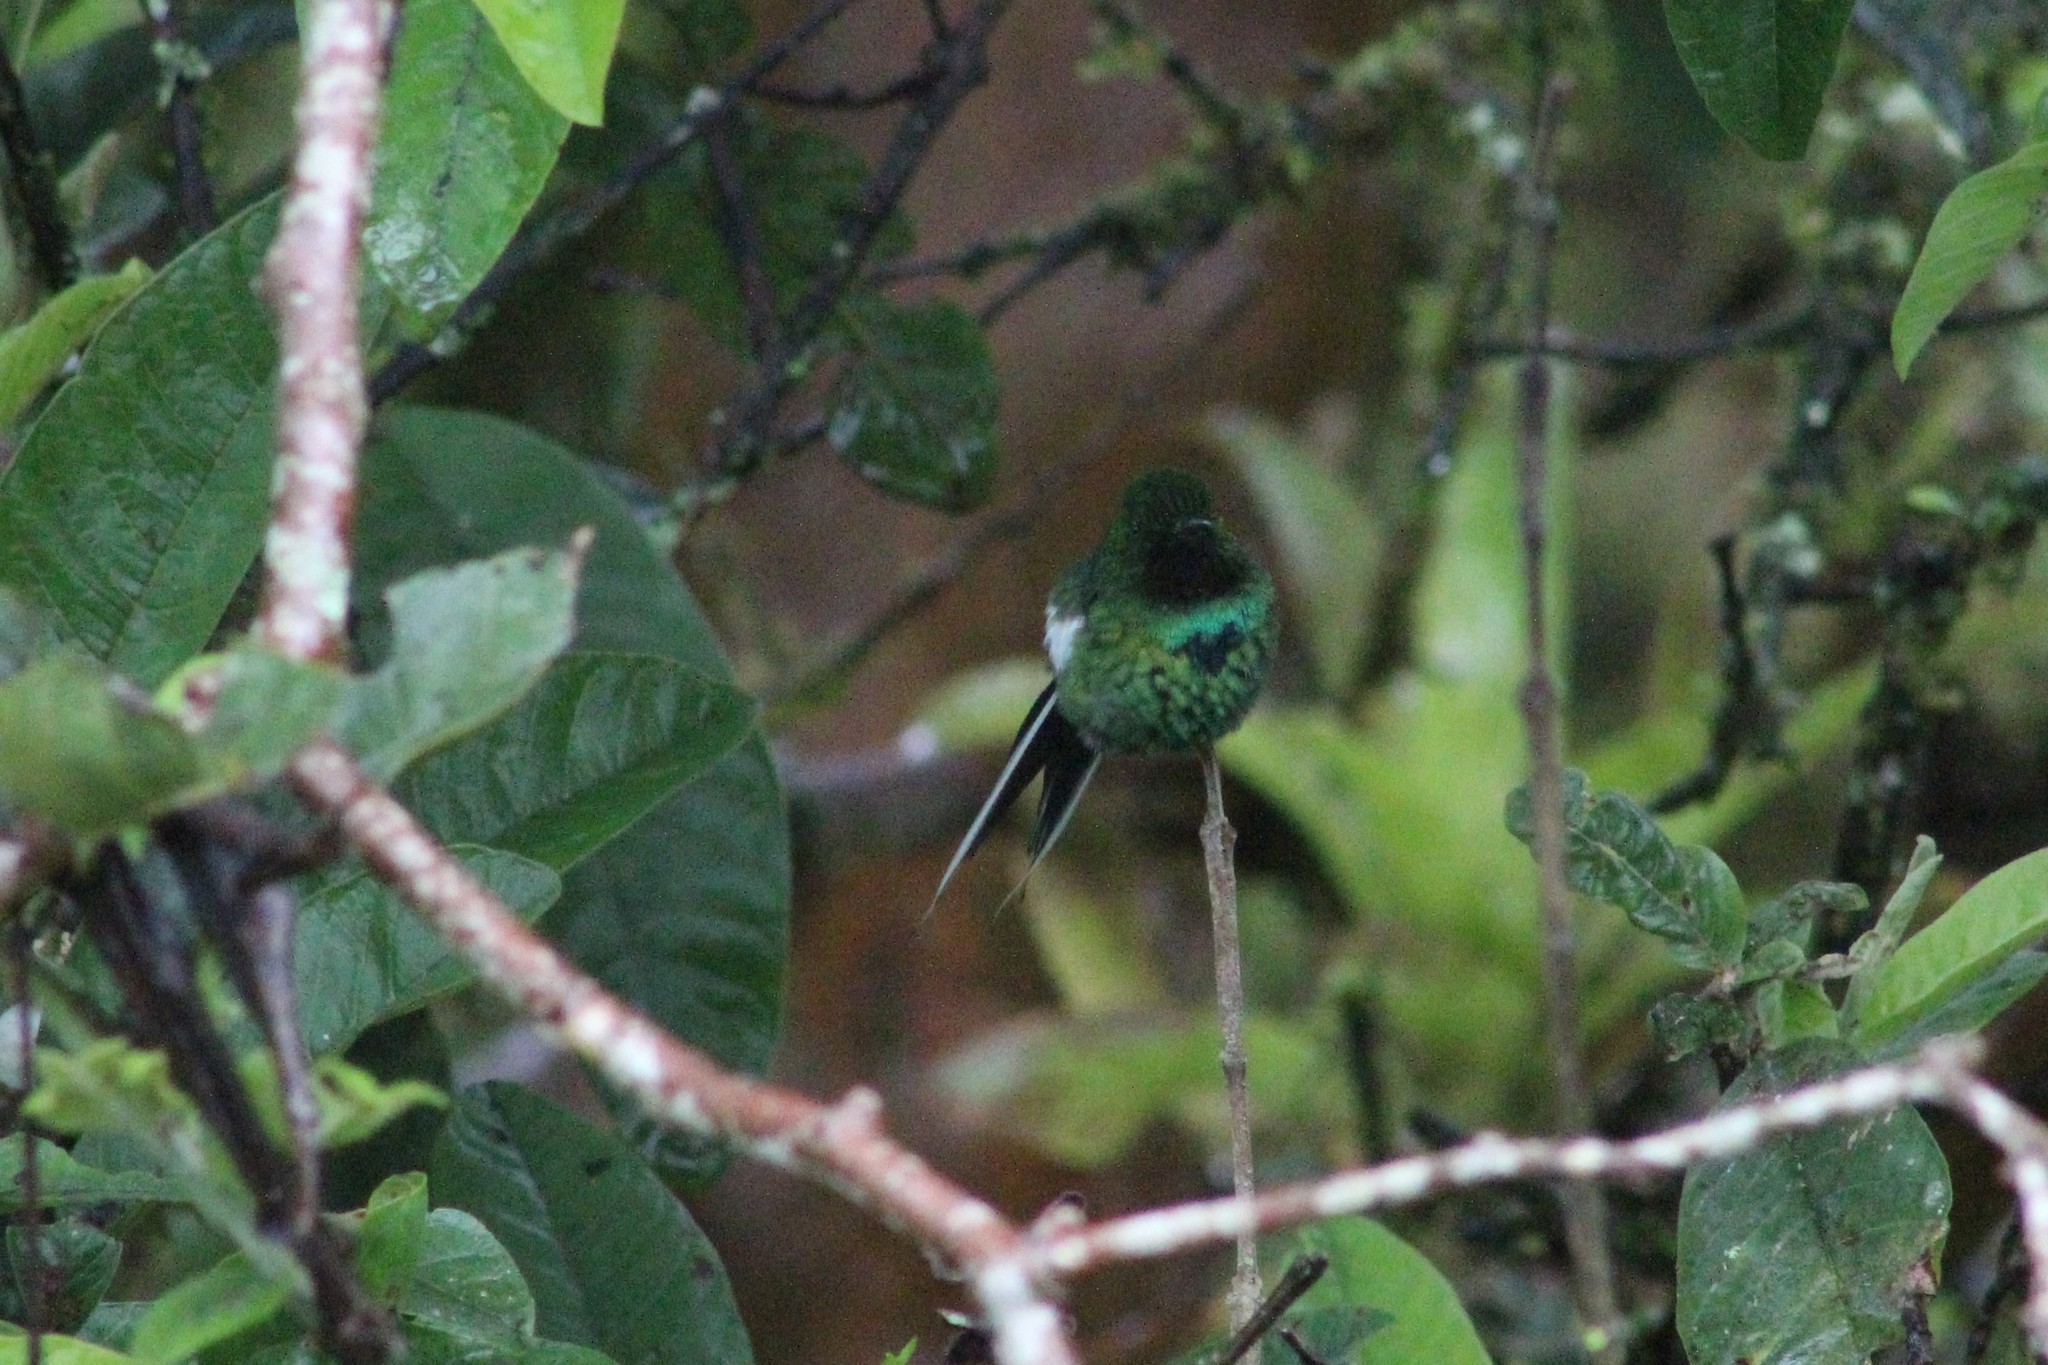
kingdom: Animalia
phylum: Chordata
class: Aves
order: Apodiformes
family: Trochilidae
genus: Discosura
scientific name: Discosura conversii
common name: Green thorntail
